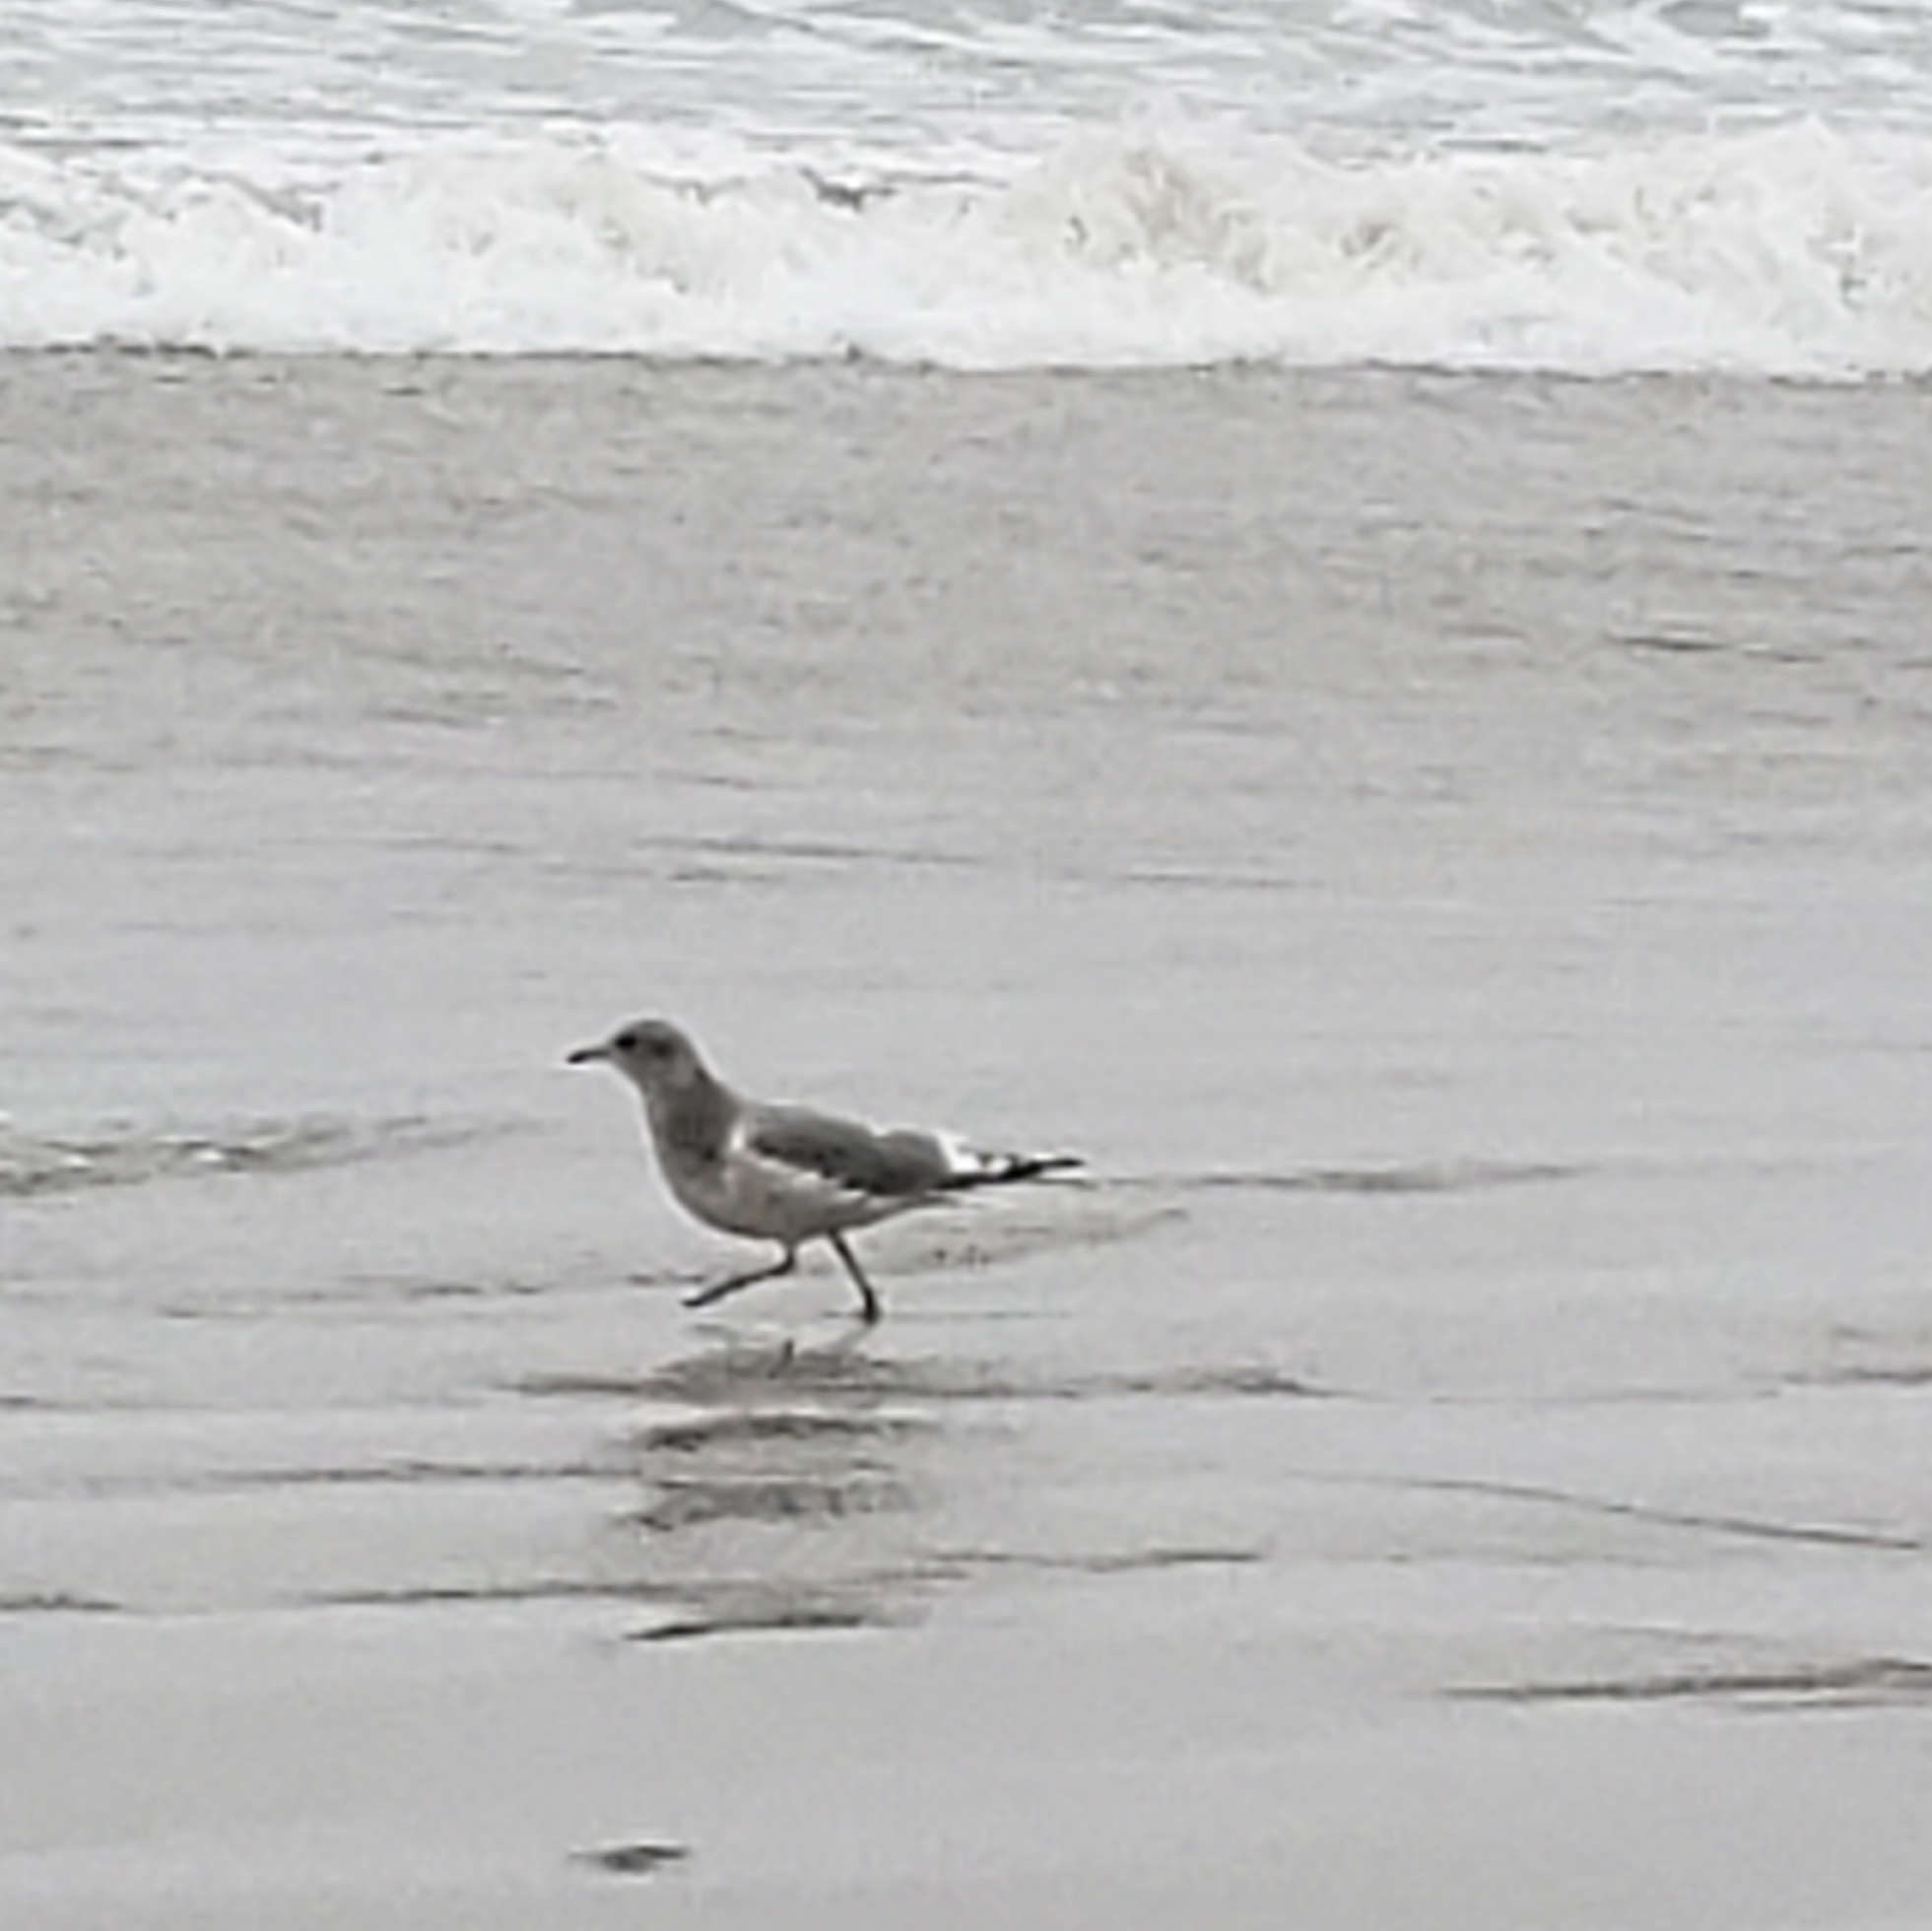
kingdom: Animalia
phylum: Chordata
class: Aves
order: Charadriiformes
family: Laridae
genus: Larus
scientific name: Larus brachyrhynchus
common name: Short-billed gull
